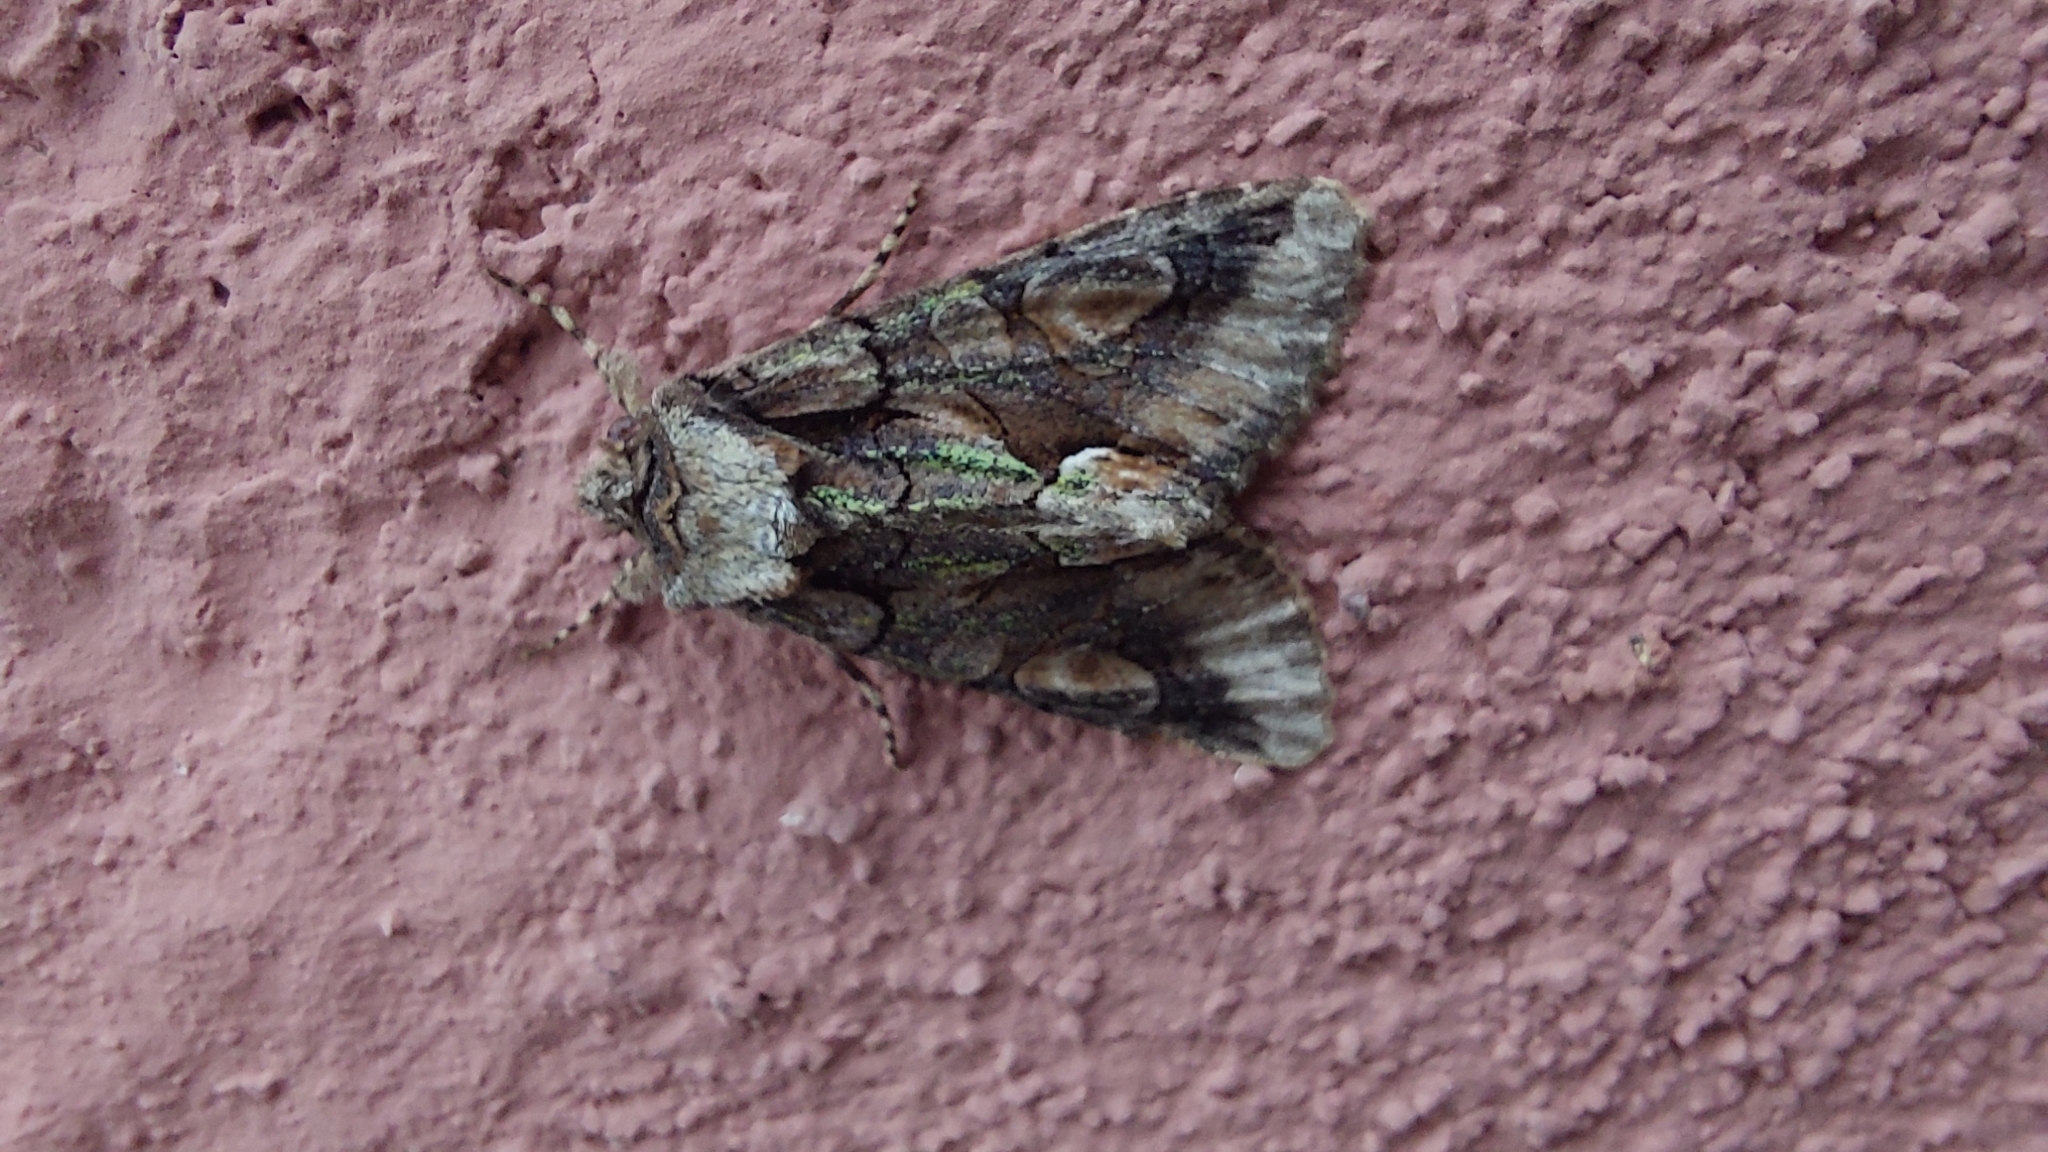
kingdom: Animalia
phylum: Arthropoda
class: Insecta
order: Lepidoptera
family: Noctuidae
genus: Allophyes
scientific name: Allophyes oxyacanthae
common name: Green-brindled crescent
